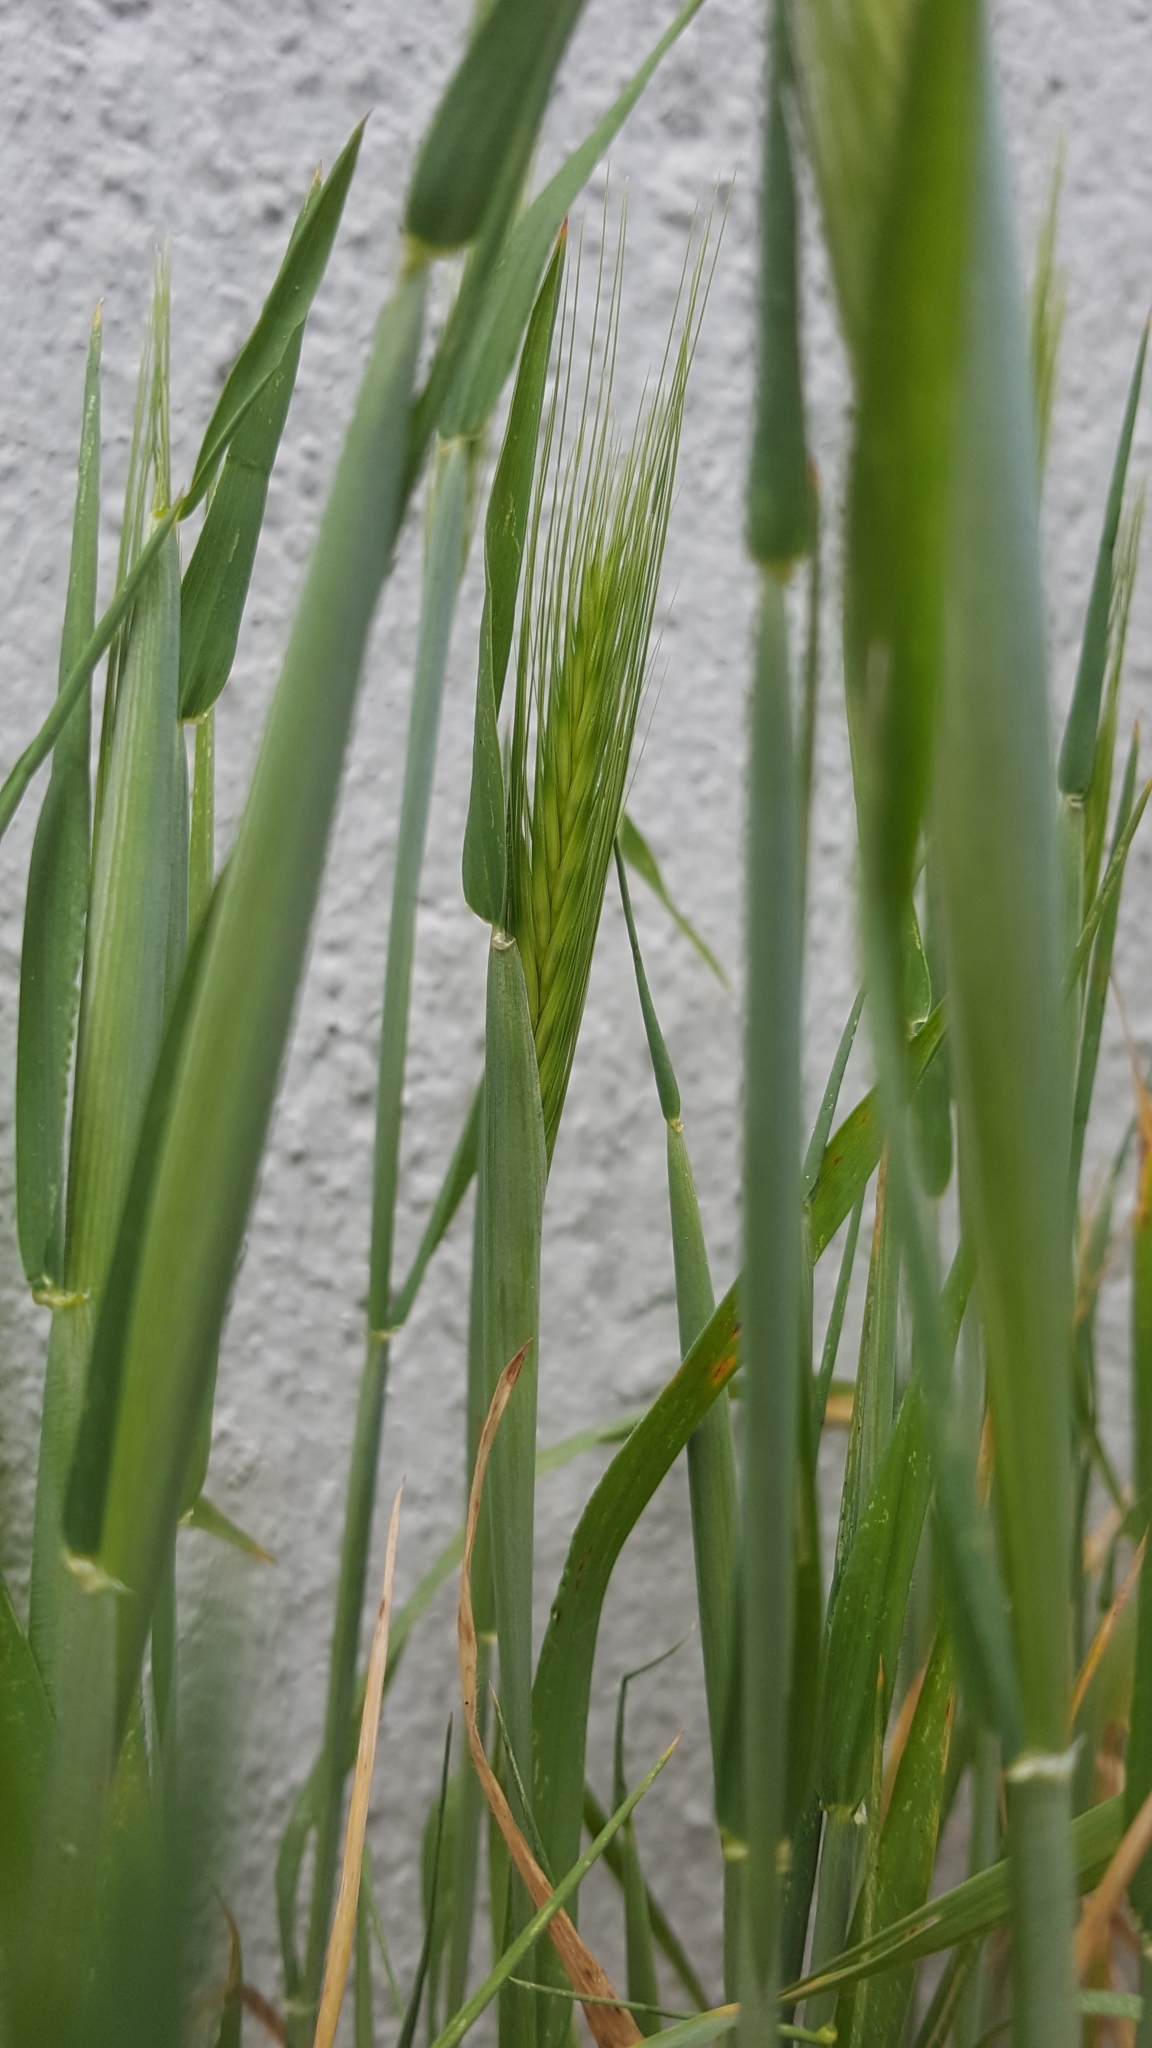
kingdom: Plantae
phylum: Tracheophyta
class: Liliopsida
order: Poales
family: Poaceae
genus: Hordeum
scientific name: Hordeum murinum
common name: Wall barley
